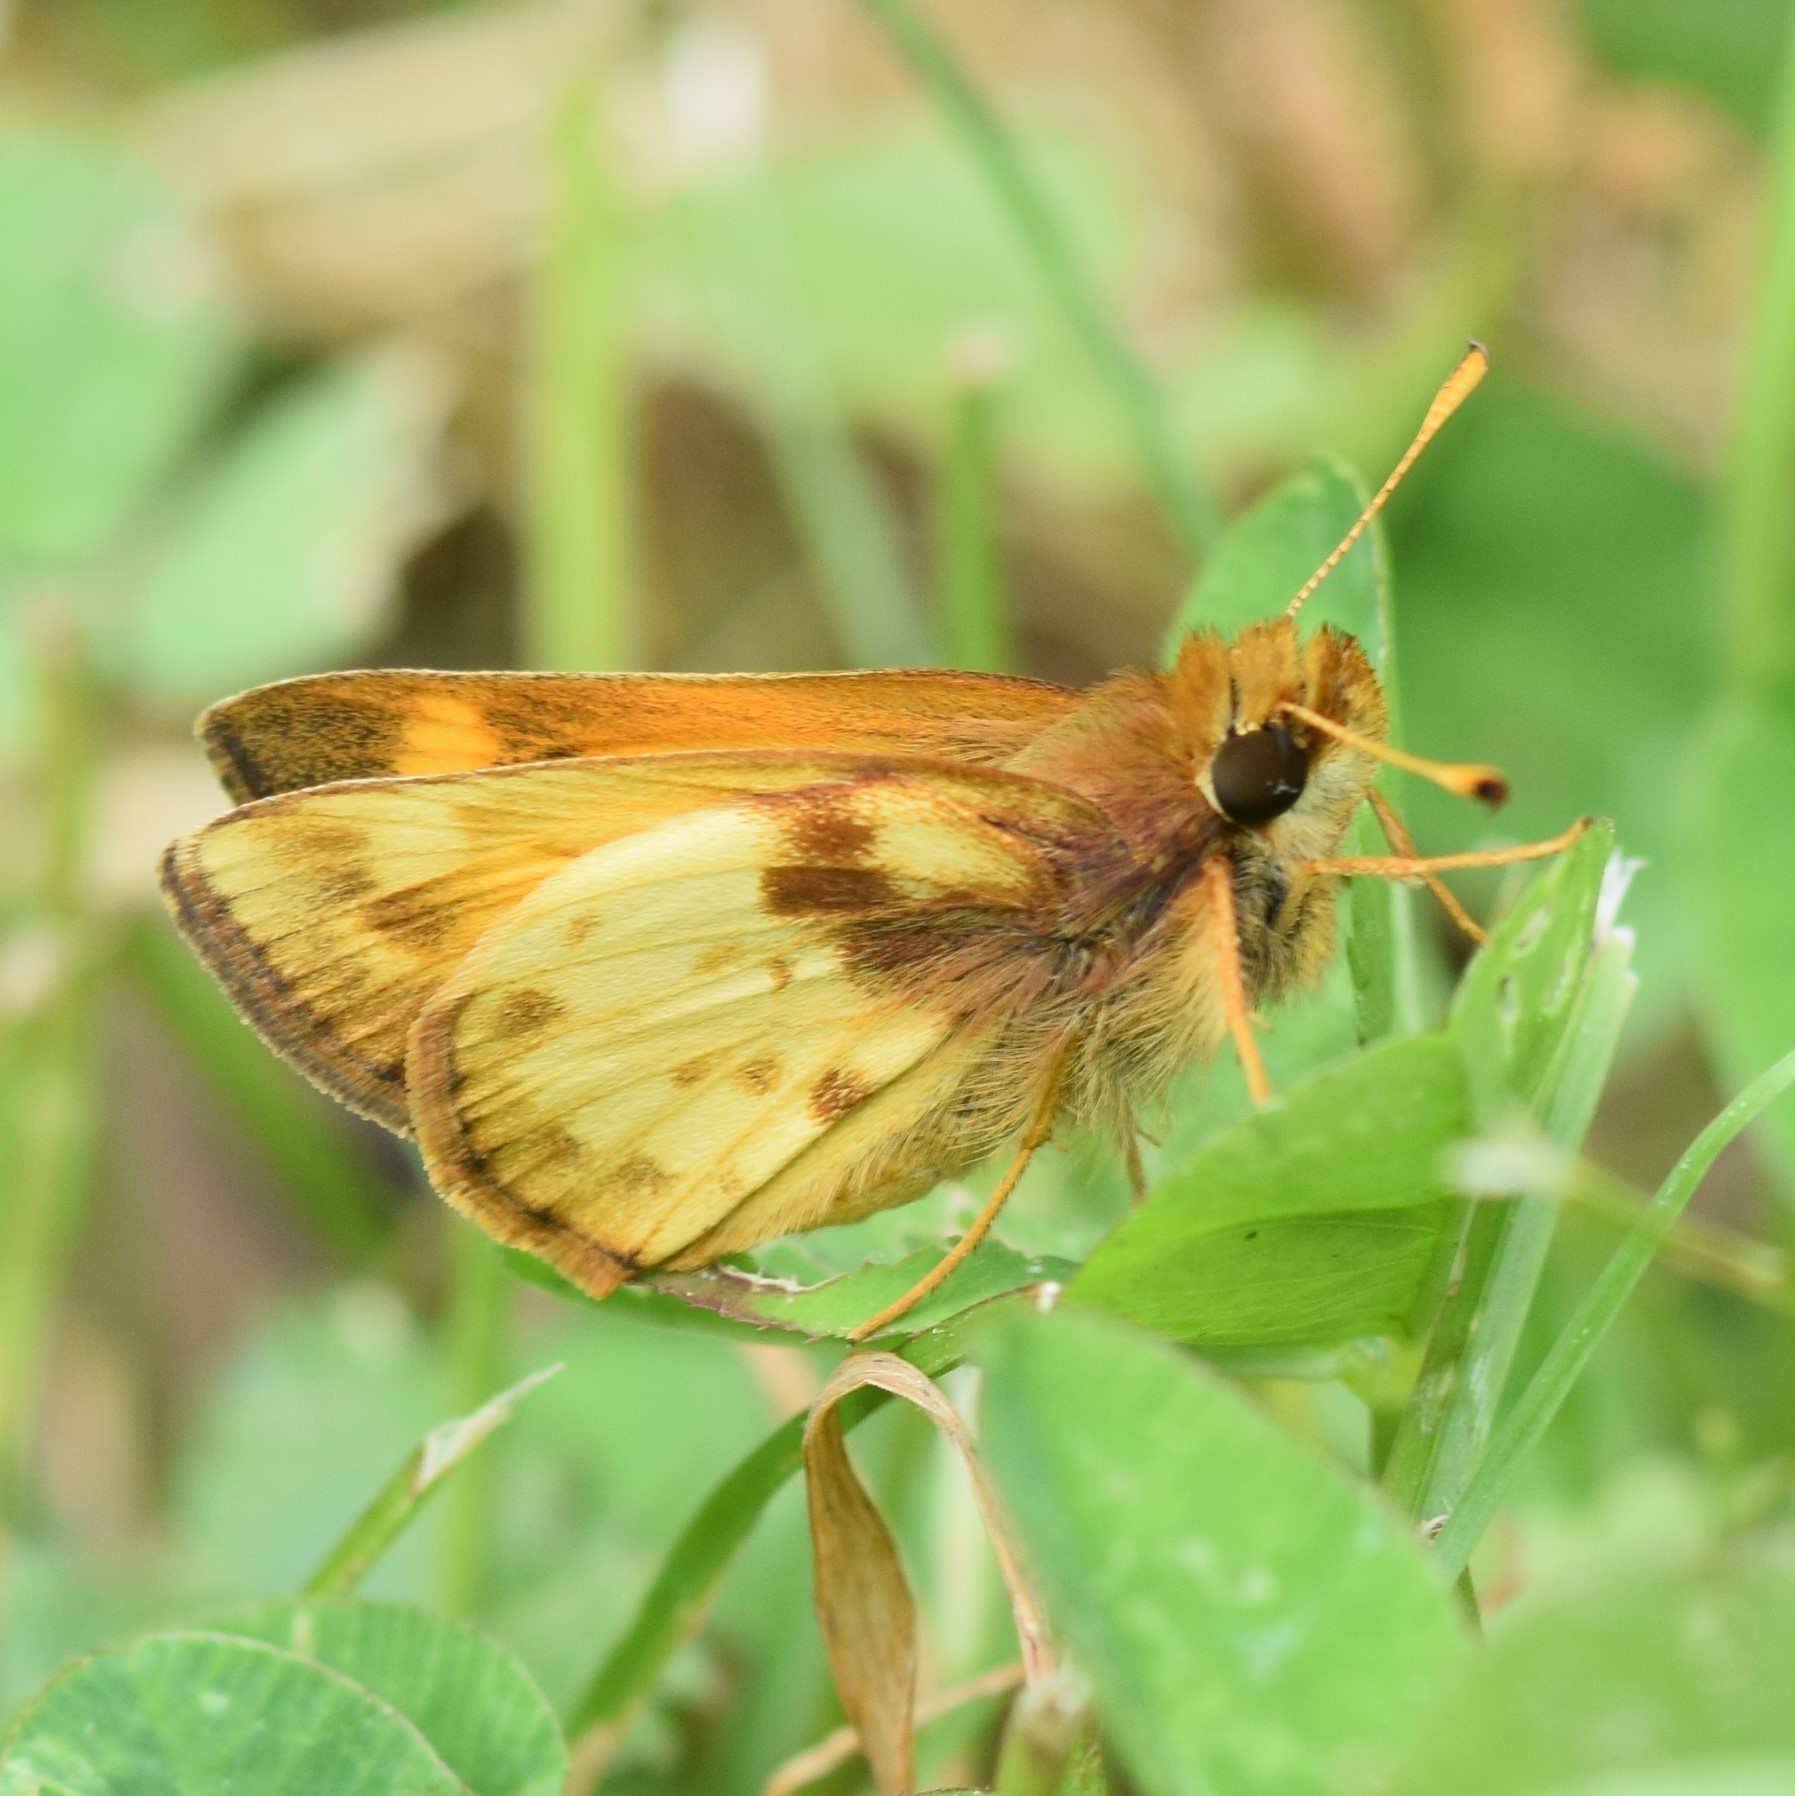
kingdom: Animalia
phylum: Arthropoda
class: Insecta
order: Lepidoptera
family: Hesperiidae
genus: Lon
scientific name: Lon zabulon
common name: Zabulon skipper
